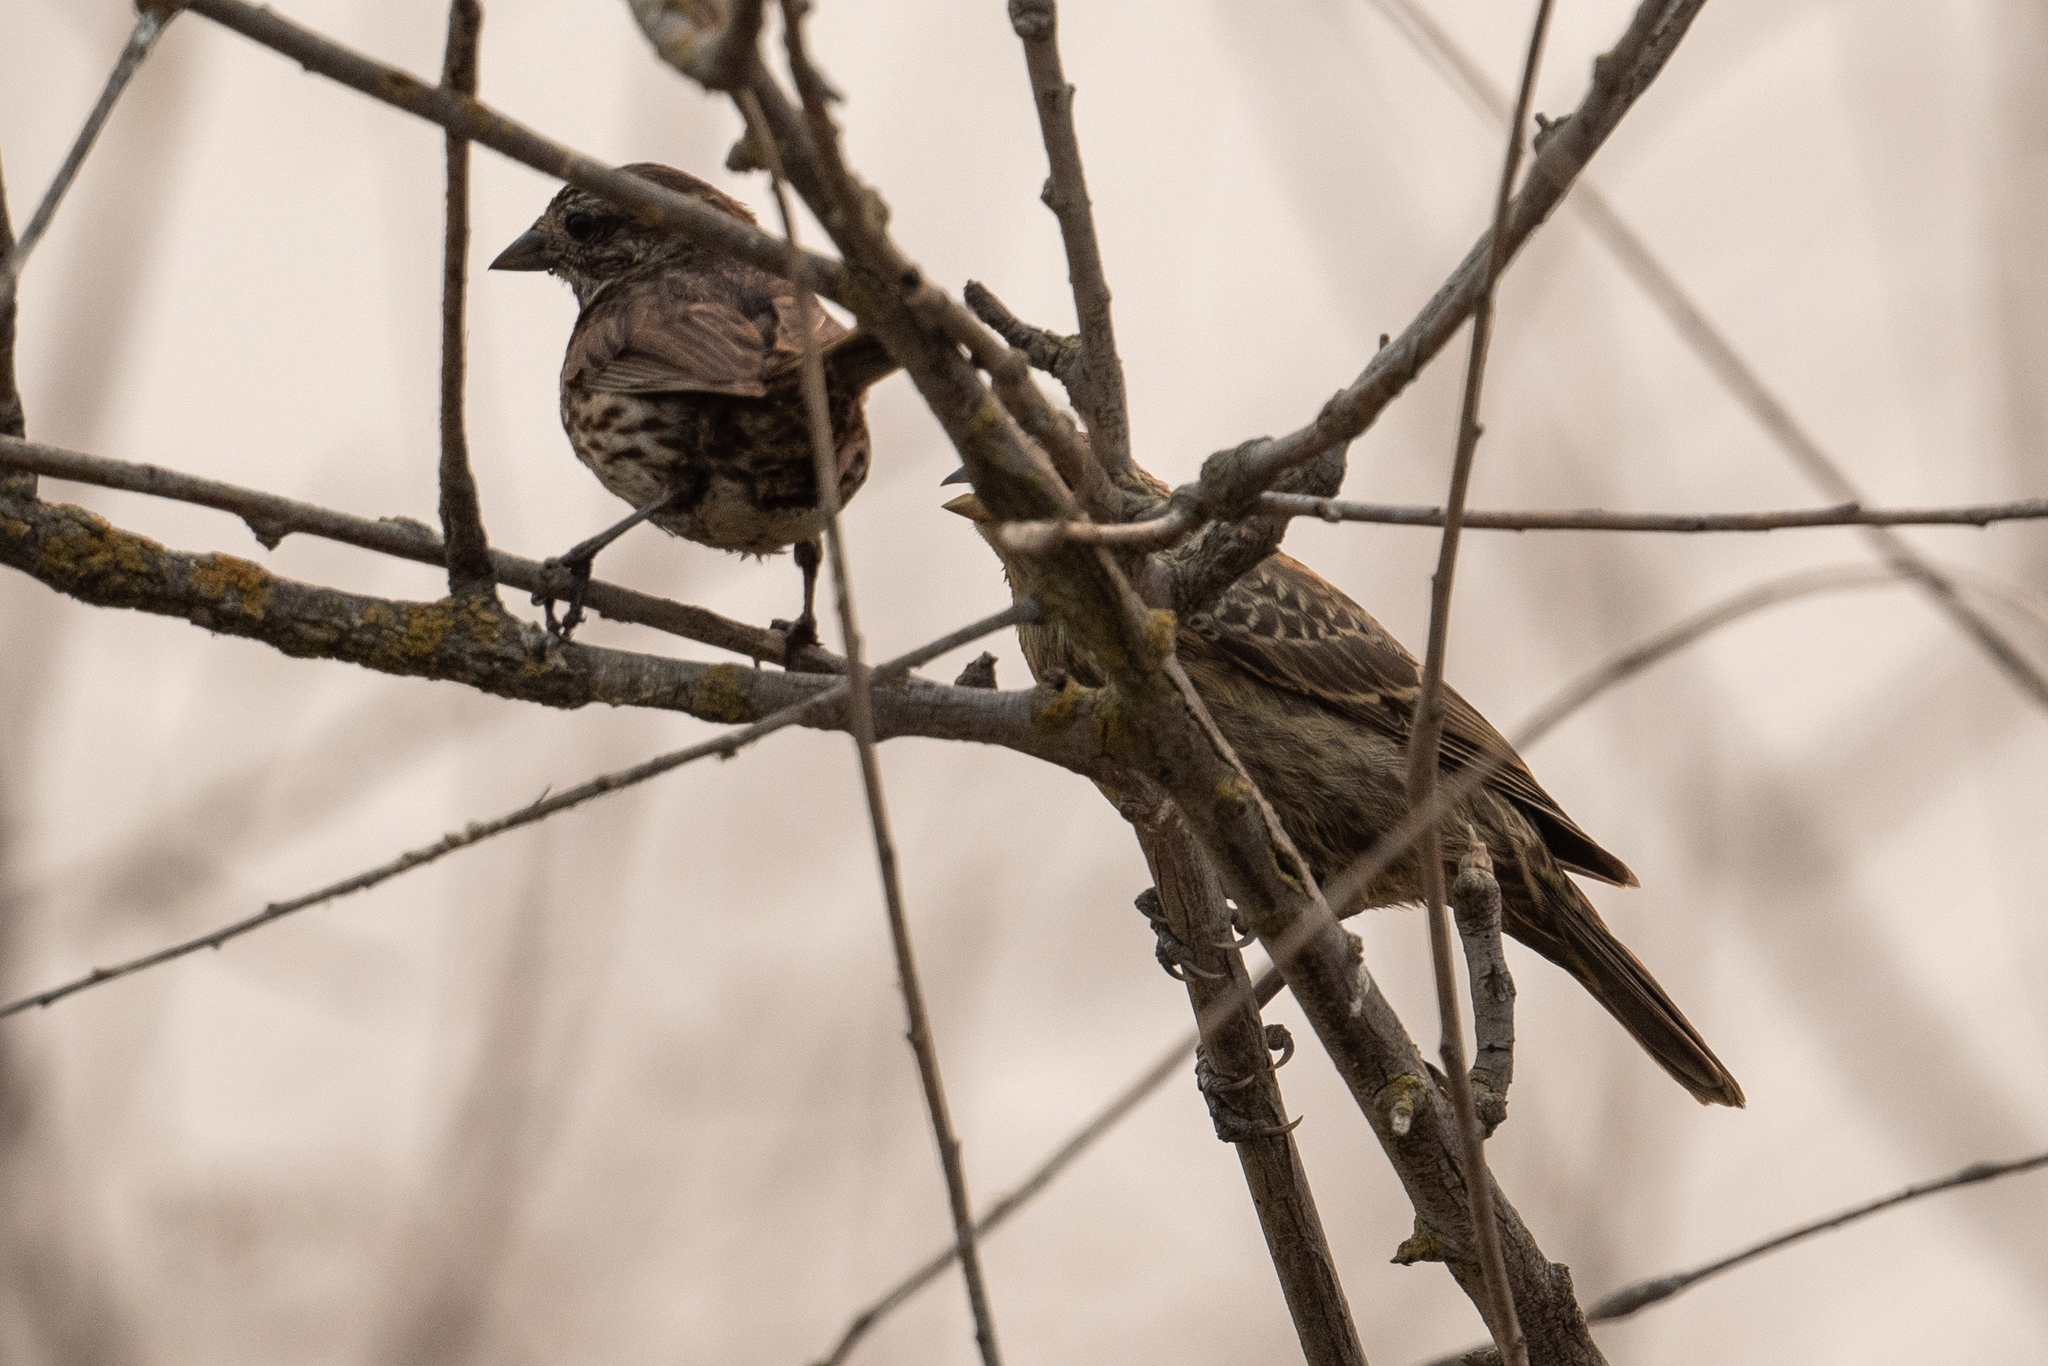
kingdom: Animalia
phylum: Chordata
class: Aves
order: Passeriformes
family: Icteridae
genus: Molothrus
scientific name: Molothrus ater
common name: Brown-headed cowbird
